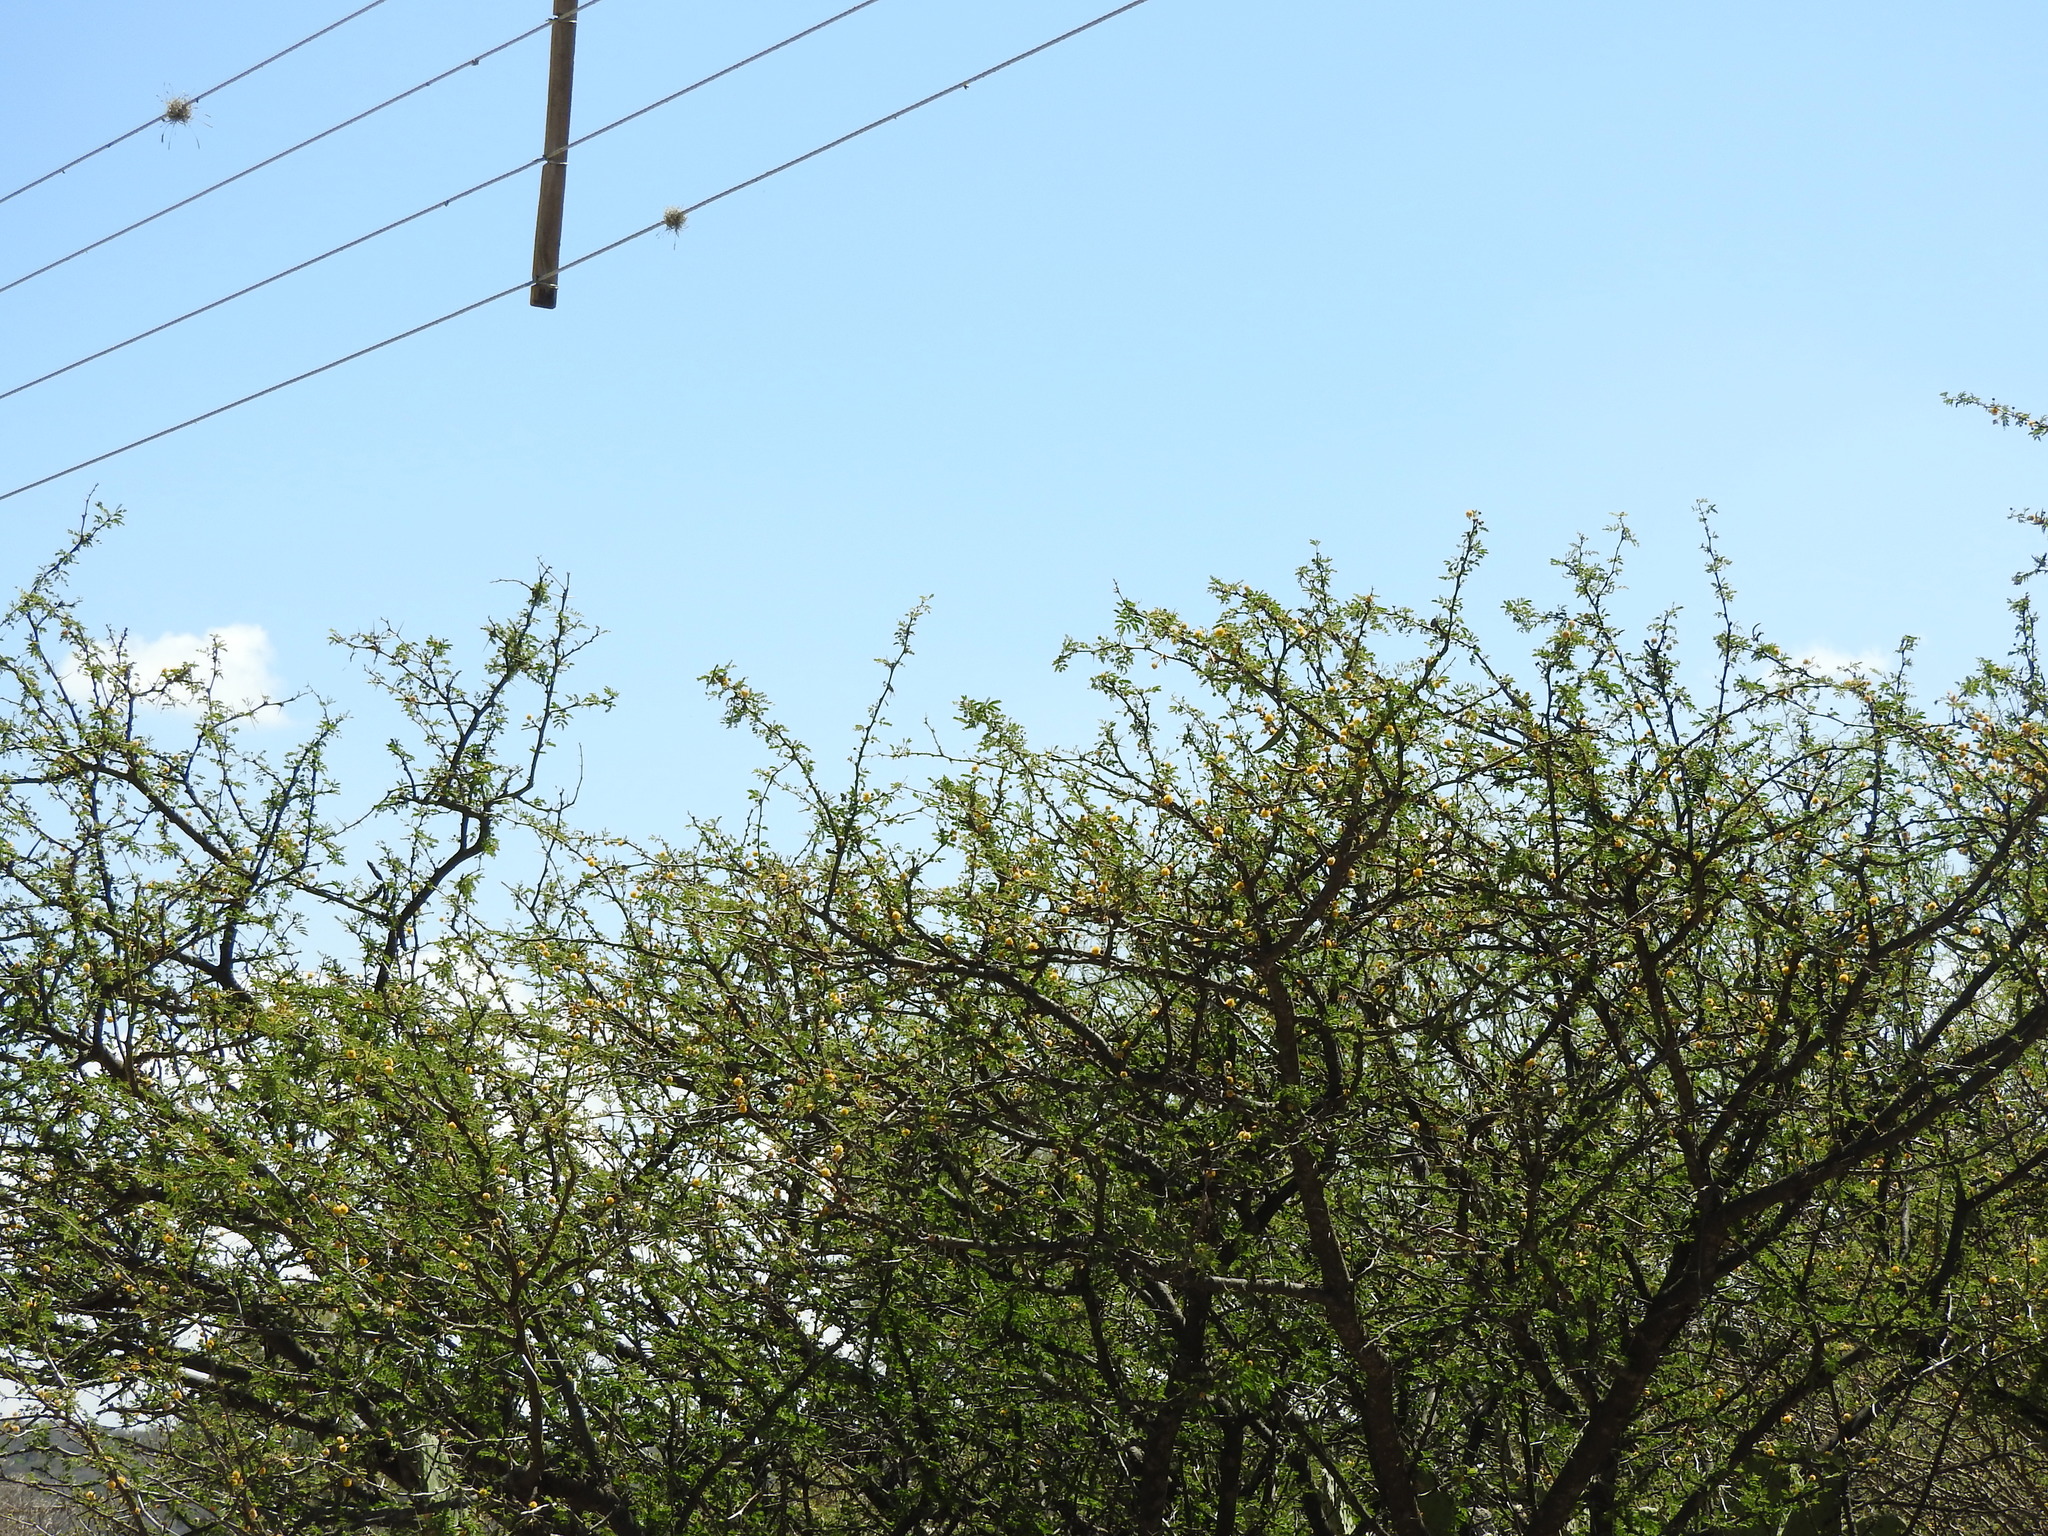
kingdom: Plantae
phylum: Tracheophyta
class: Magnoliopsida
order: Fabales
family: Fabaceae
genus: Vachellia
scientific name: Vachellia farnesiana
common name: Sweet acacia
